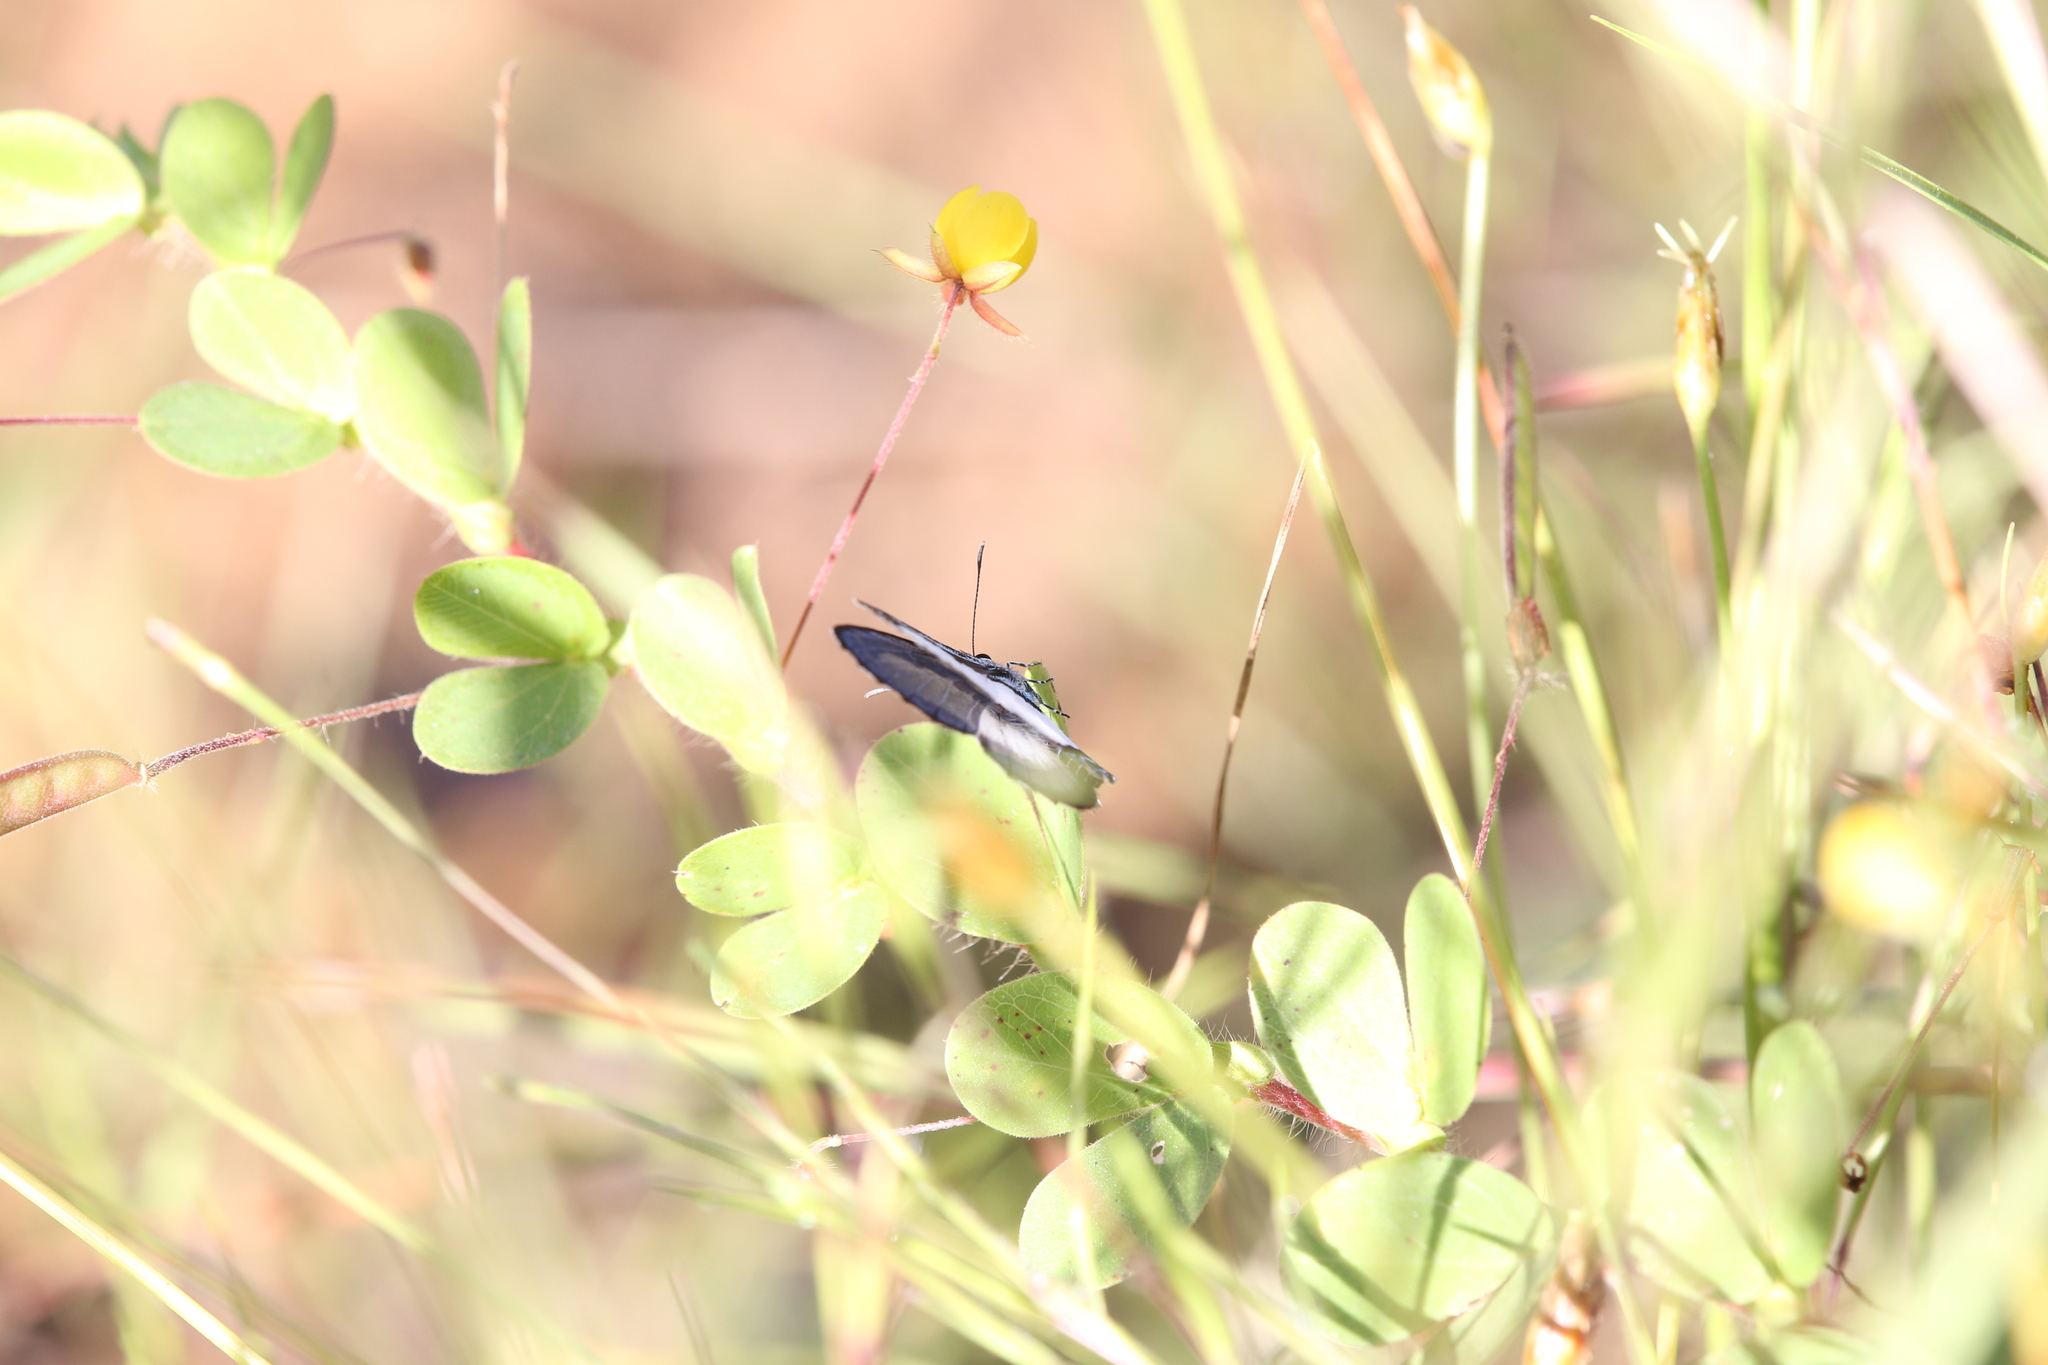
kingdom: Animalia
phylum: Arthropoda
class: Insecta
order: Lepidoptera
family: Lycaenidae
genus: Psychonotis
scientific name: Psychonotis caelius
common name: Small green banded blue
